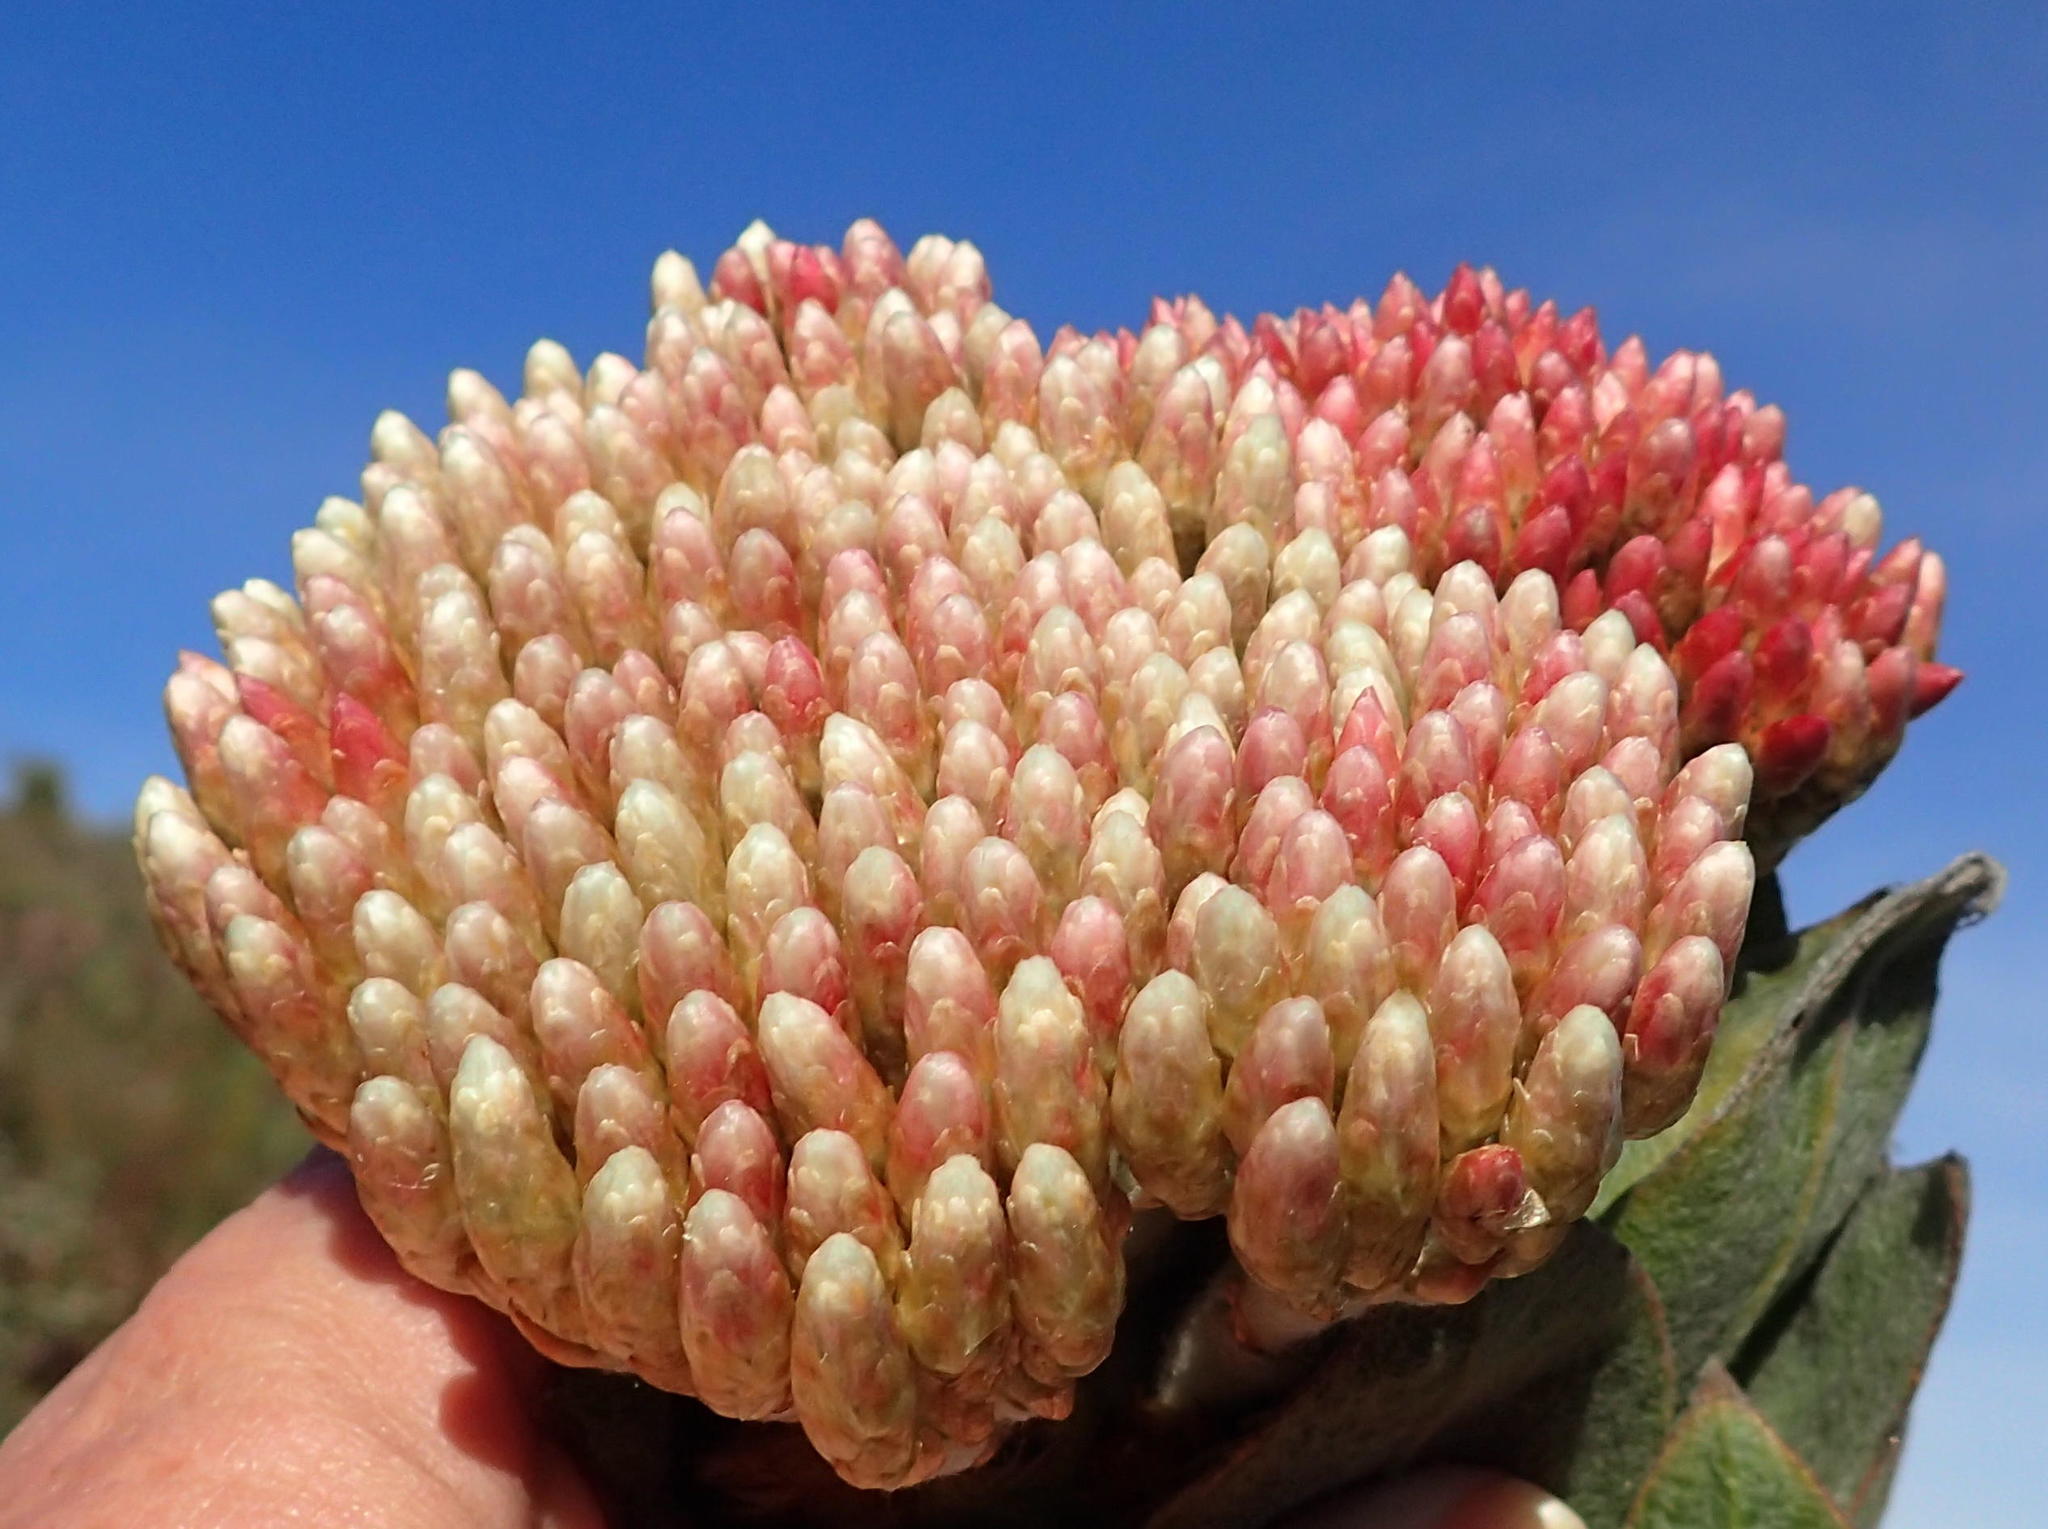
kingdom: Plantae
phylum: Tracheophyta
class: Magnoliopsida
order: Asterales
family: Asteraceae
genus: Syncarpha
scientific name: Syncarpha milleflora
